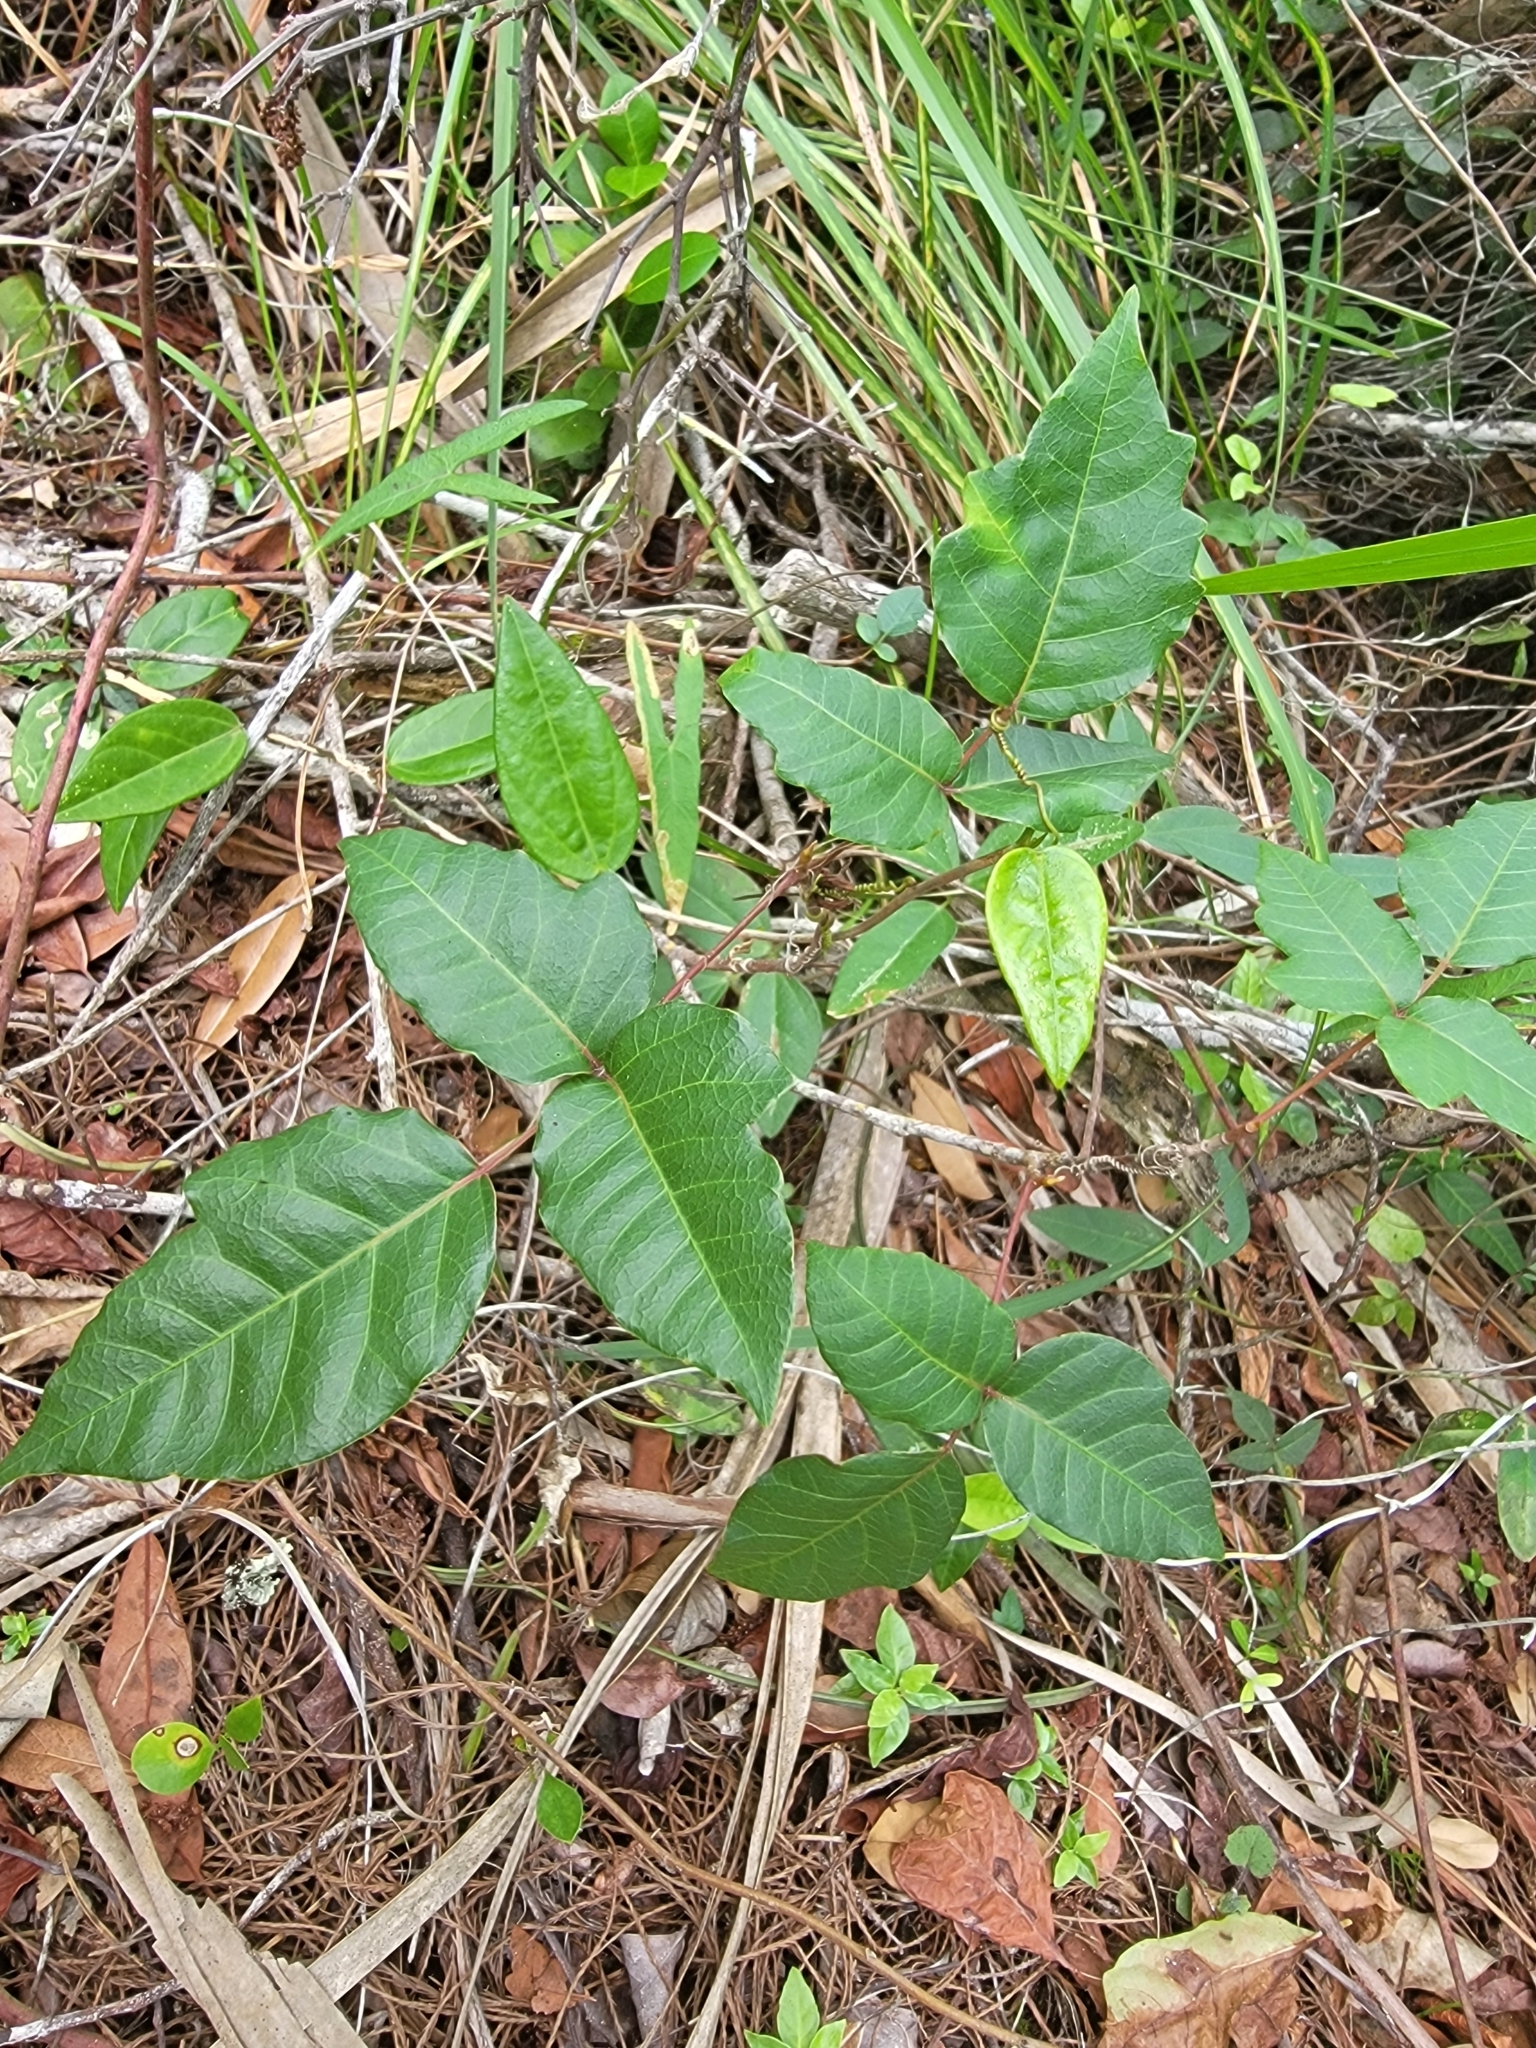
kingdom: Plantae
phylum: Tracheophyta
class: Magnoliopsida
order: Sapindales
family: Anacardiaceae
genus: Toxicodendron
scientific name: Toxicodendron radicans
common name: Poison ivy
